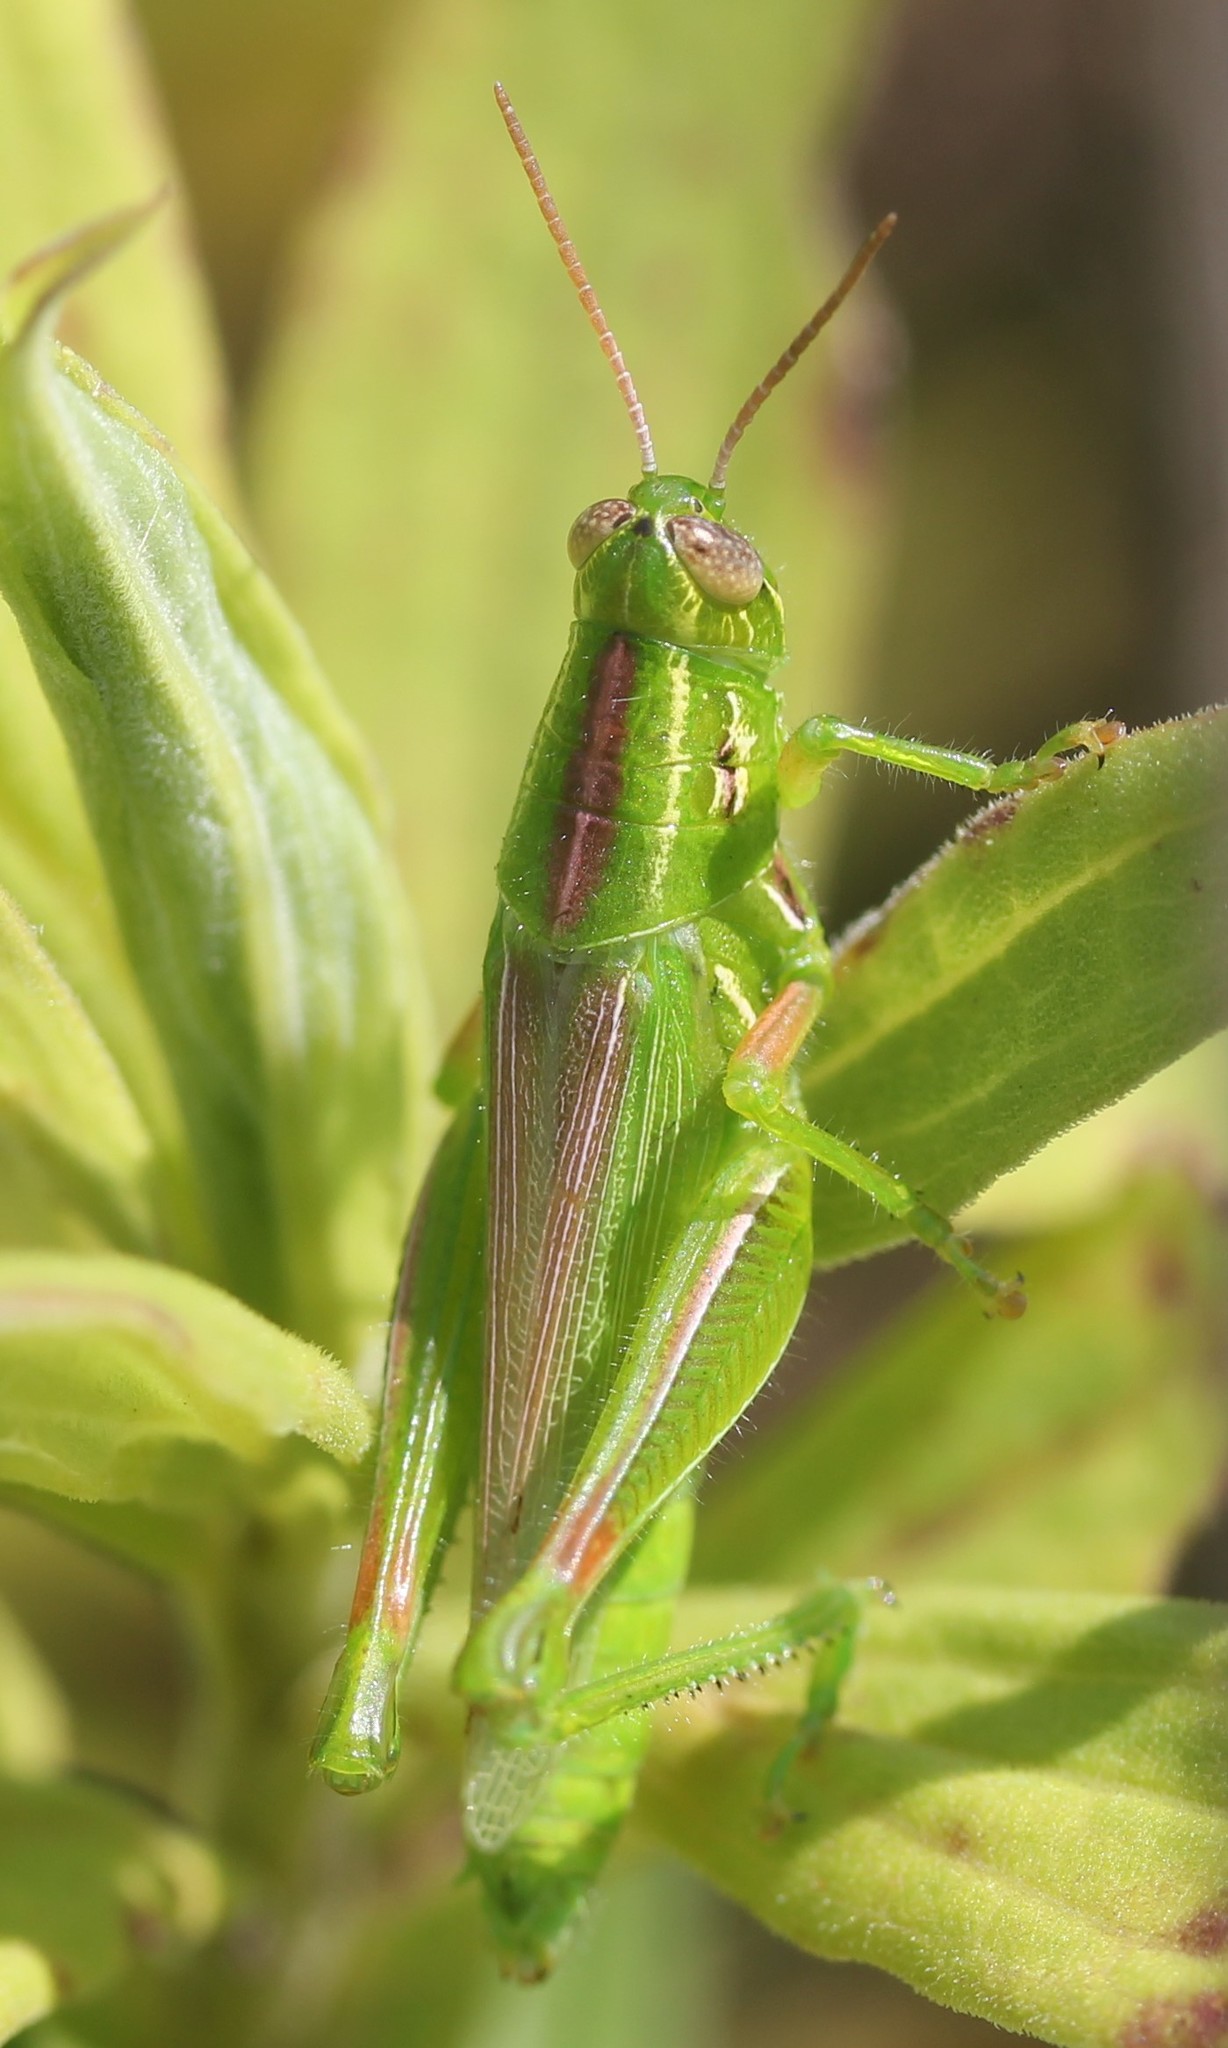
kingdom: Animalia
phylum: Arthropoda
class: Insecta
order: Orthoptera
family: Acrididae
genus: Hesperotettix
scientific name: Hesperotettix viridis
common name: Meadow purple-striped grasshopper
